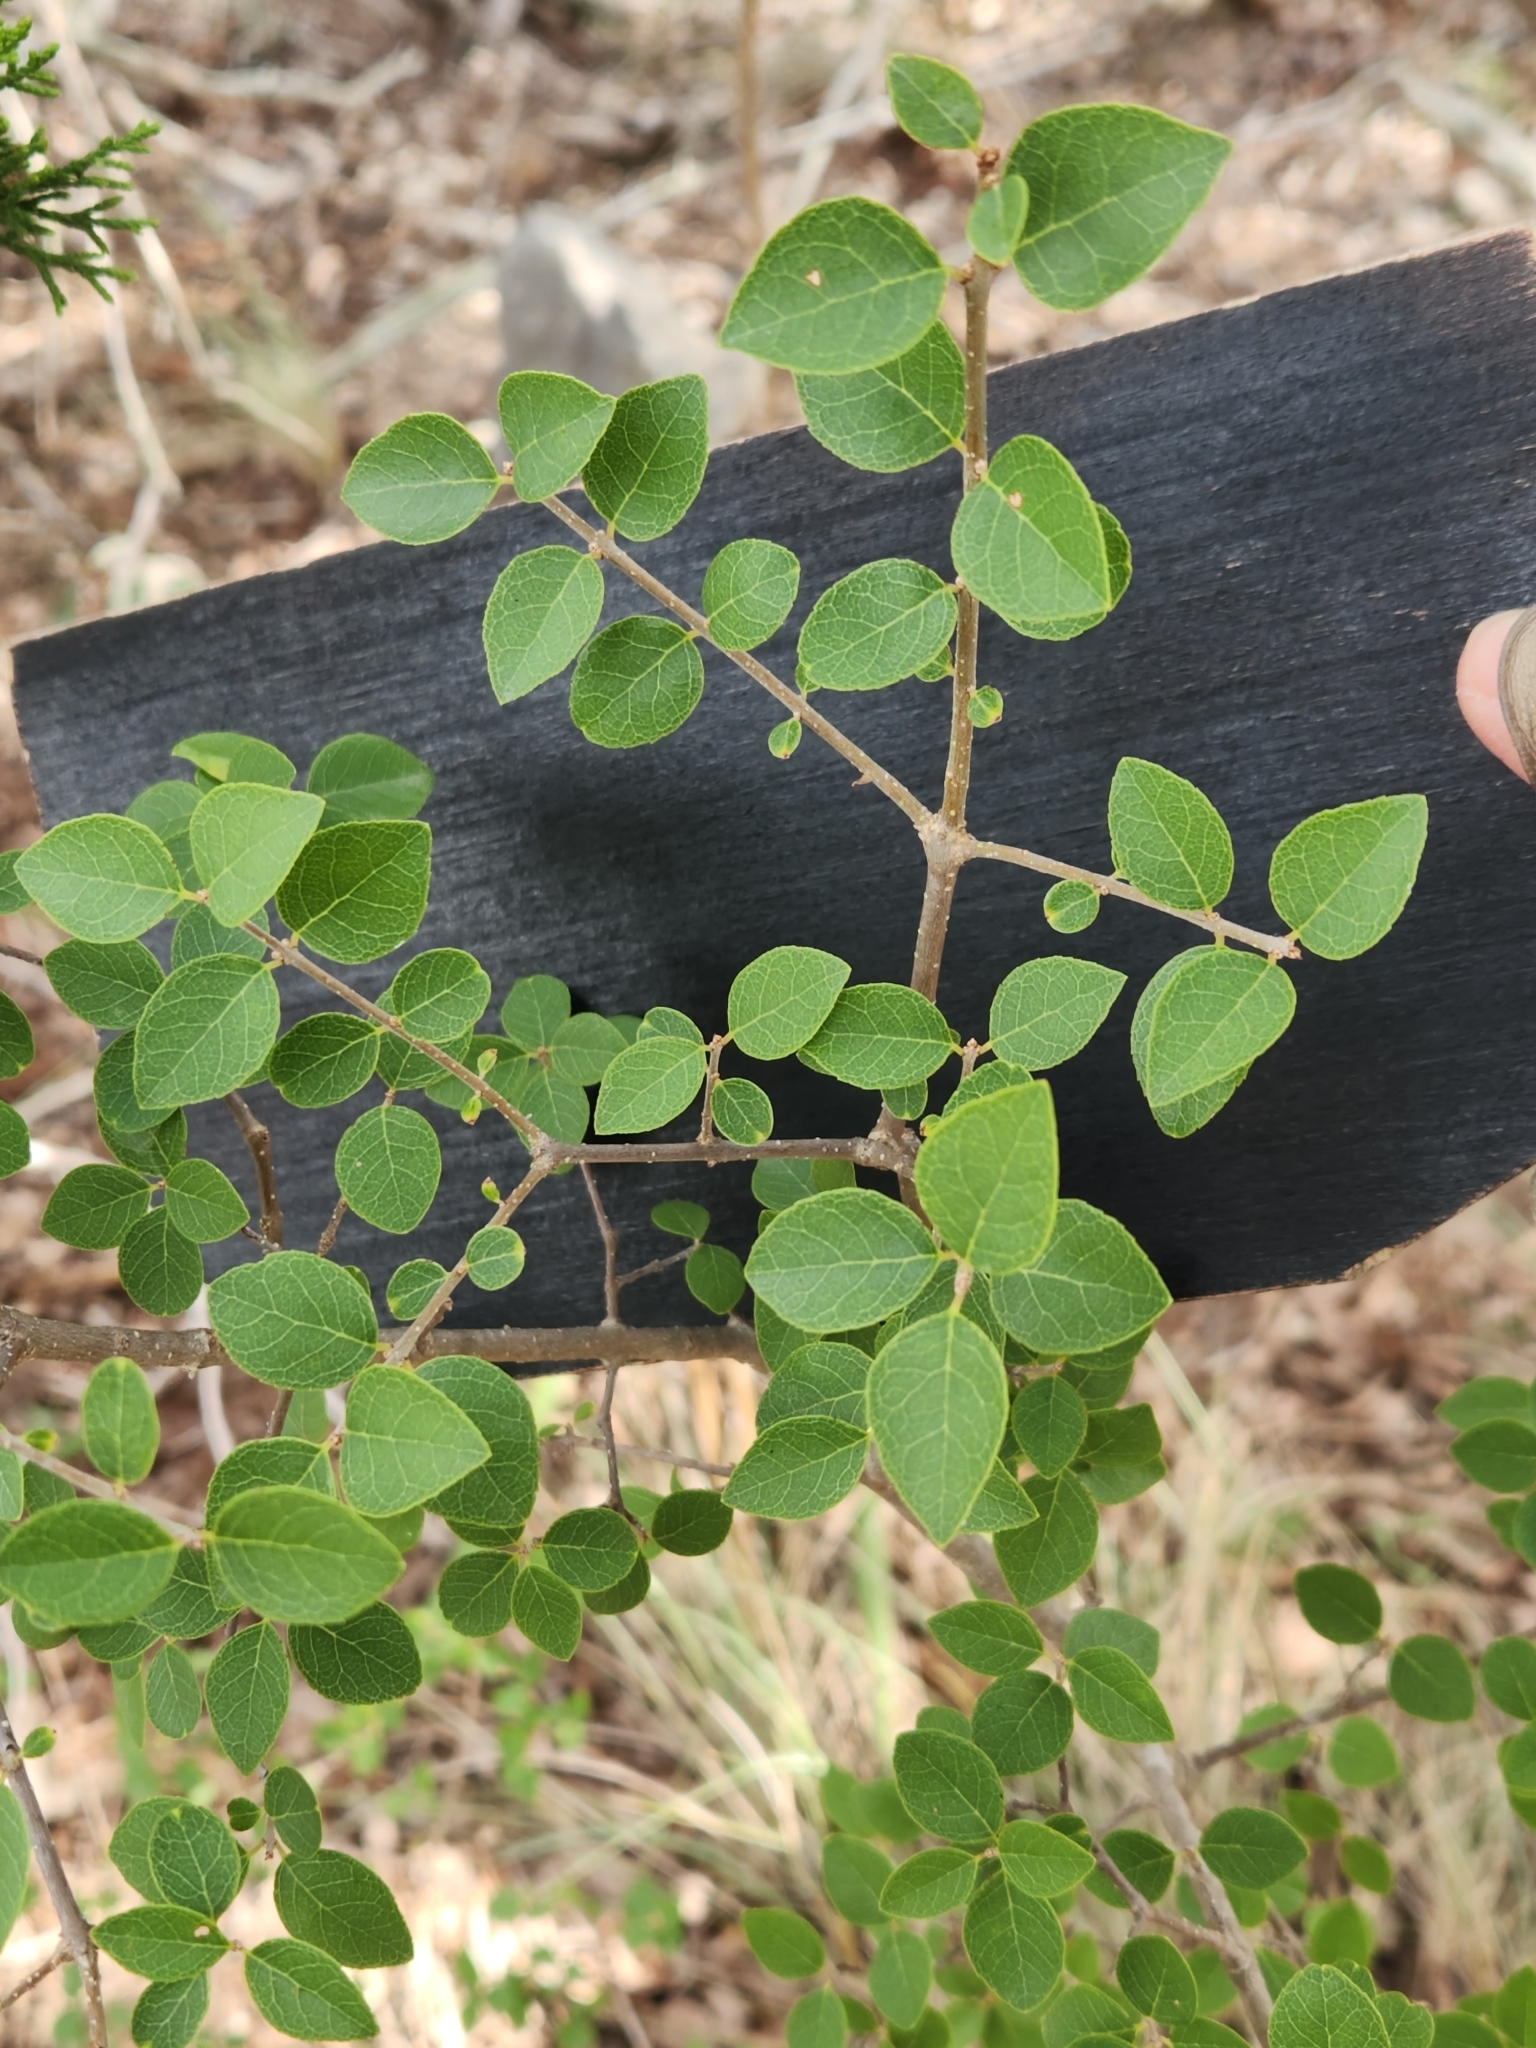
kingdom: Plantae
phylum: Tracheophyta
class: Magnoliopsida
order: Lamiales
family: Oleaceae
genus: Forestiera
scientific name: Forestiera reticulata
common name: Netleaf swamp-privet
